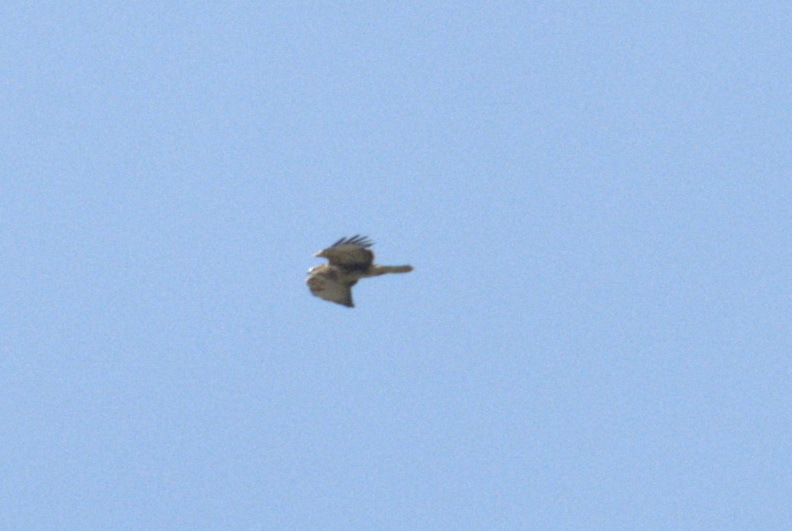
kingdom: Animalia
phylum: Chordata
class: Aves
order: Accipitriformes
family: Accipitridae
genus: Buteo
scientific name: Buteo buteo
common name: Common buzzard
